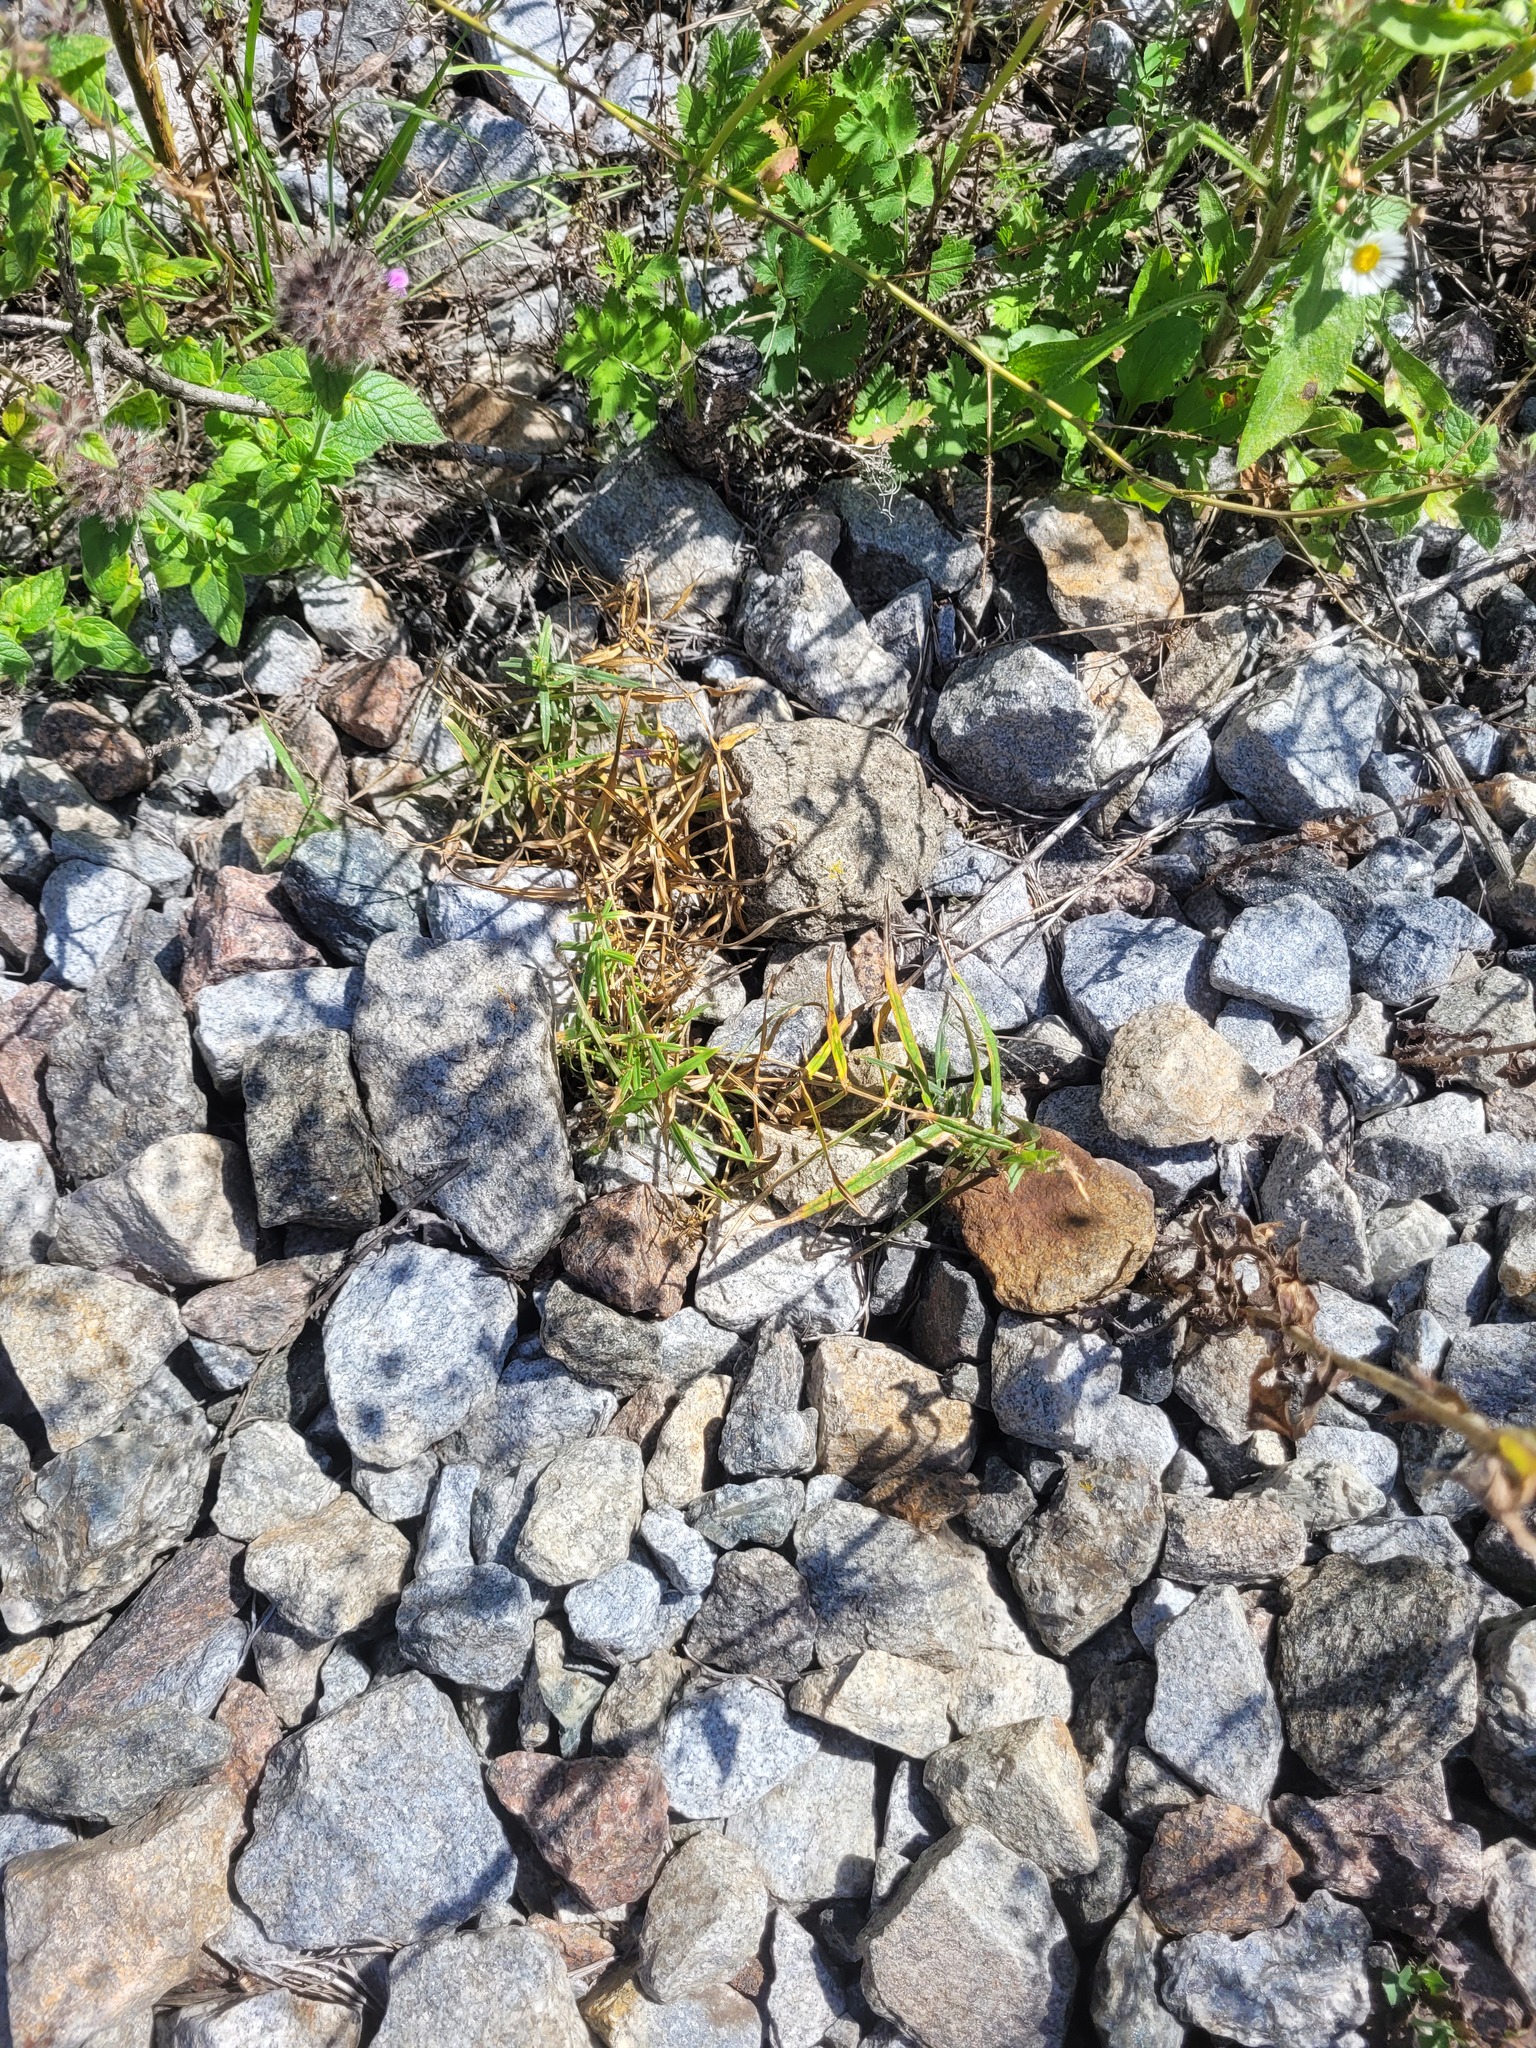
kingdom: Plantae
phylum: Tracheophyta
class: Magnoliopsida
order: Caryophyllales
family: Caryophyllaceae
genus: Rabelera
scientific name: Rabelera holostea
